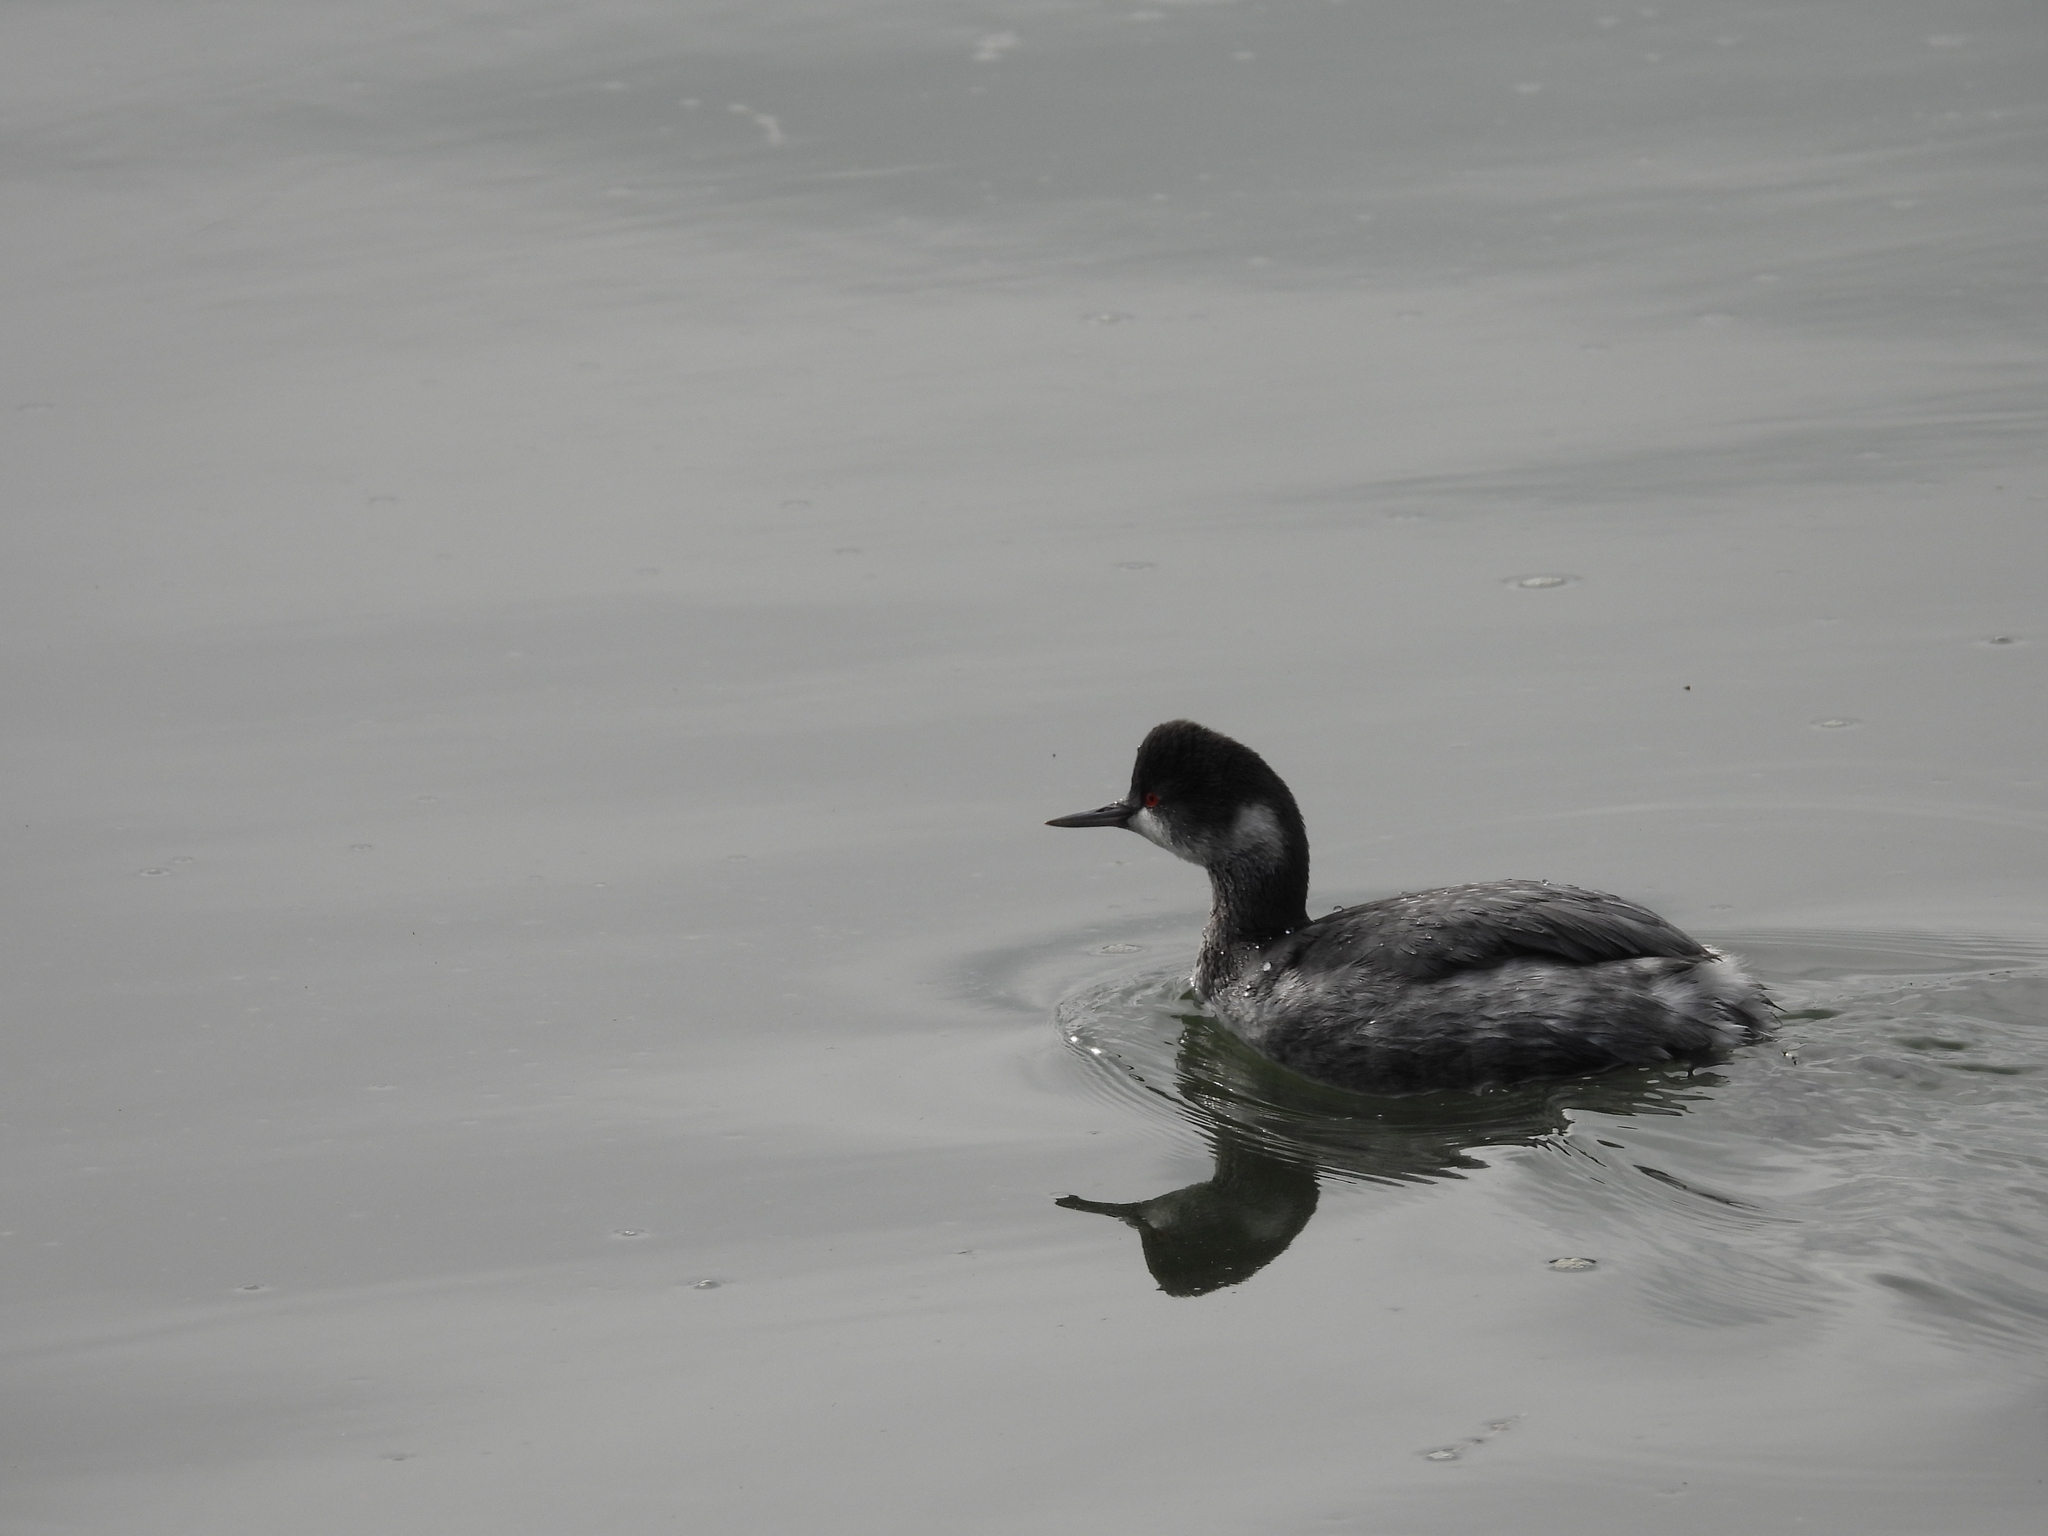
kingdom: Animalia
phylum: Chordata
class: Aves
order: Podicipediformes
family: Podicipedidae
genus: Podiceps
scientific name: Podiceps nigricollis
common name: Black-necked grebe
